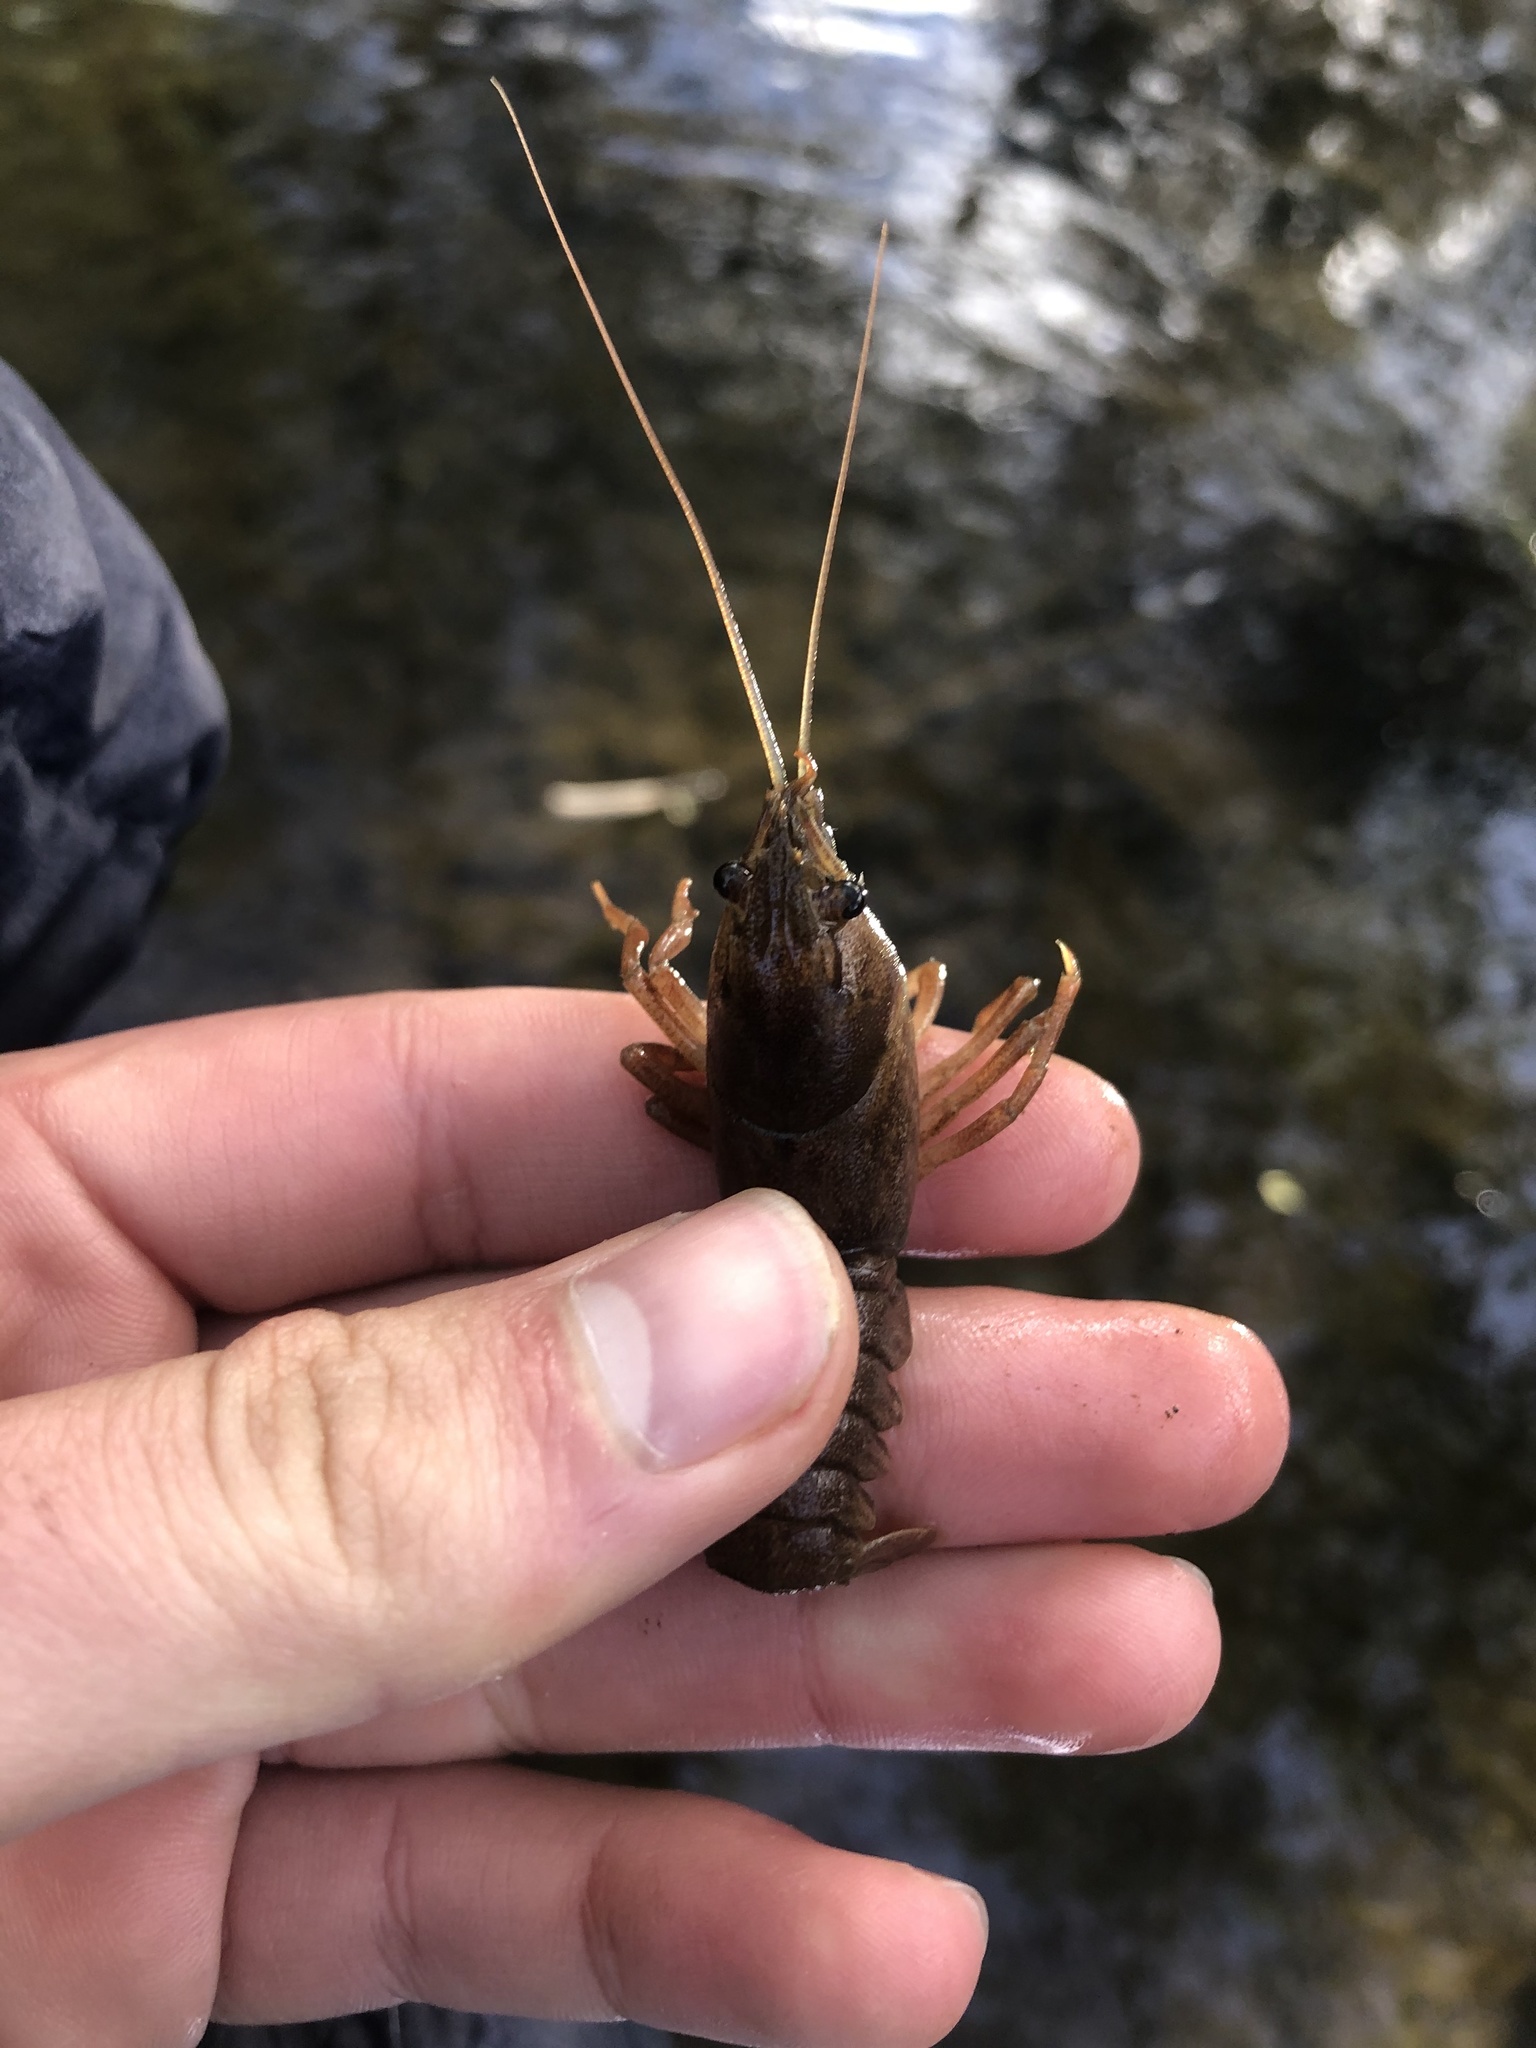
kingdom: Animalia
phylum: Arthropoda
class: Malacostraca
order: Decapoda
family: Astacidae
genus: Pacifastacus
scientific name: Pacifastacus leniusculus
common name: Signal crayfish
